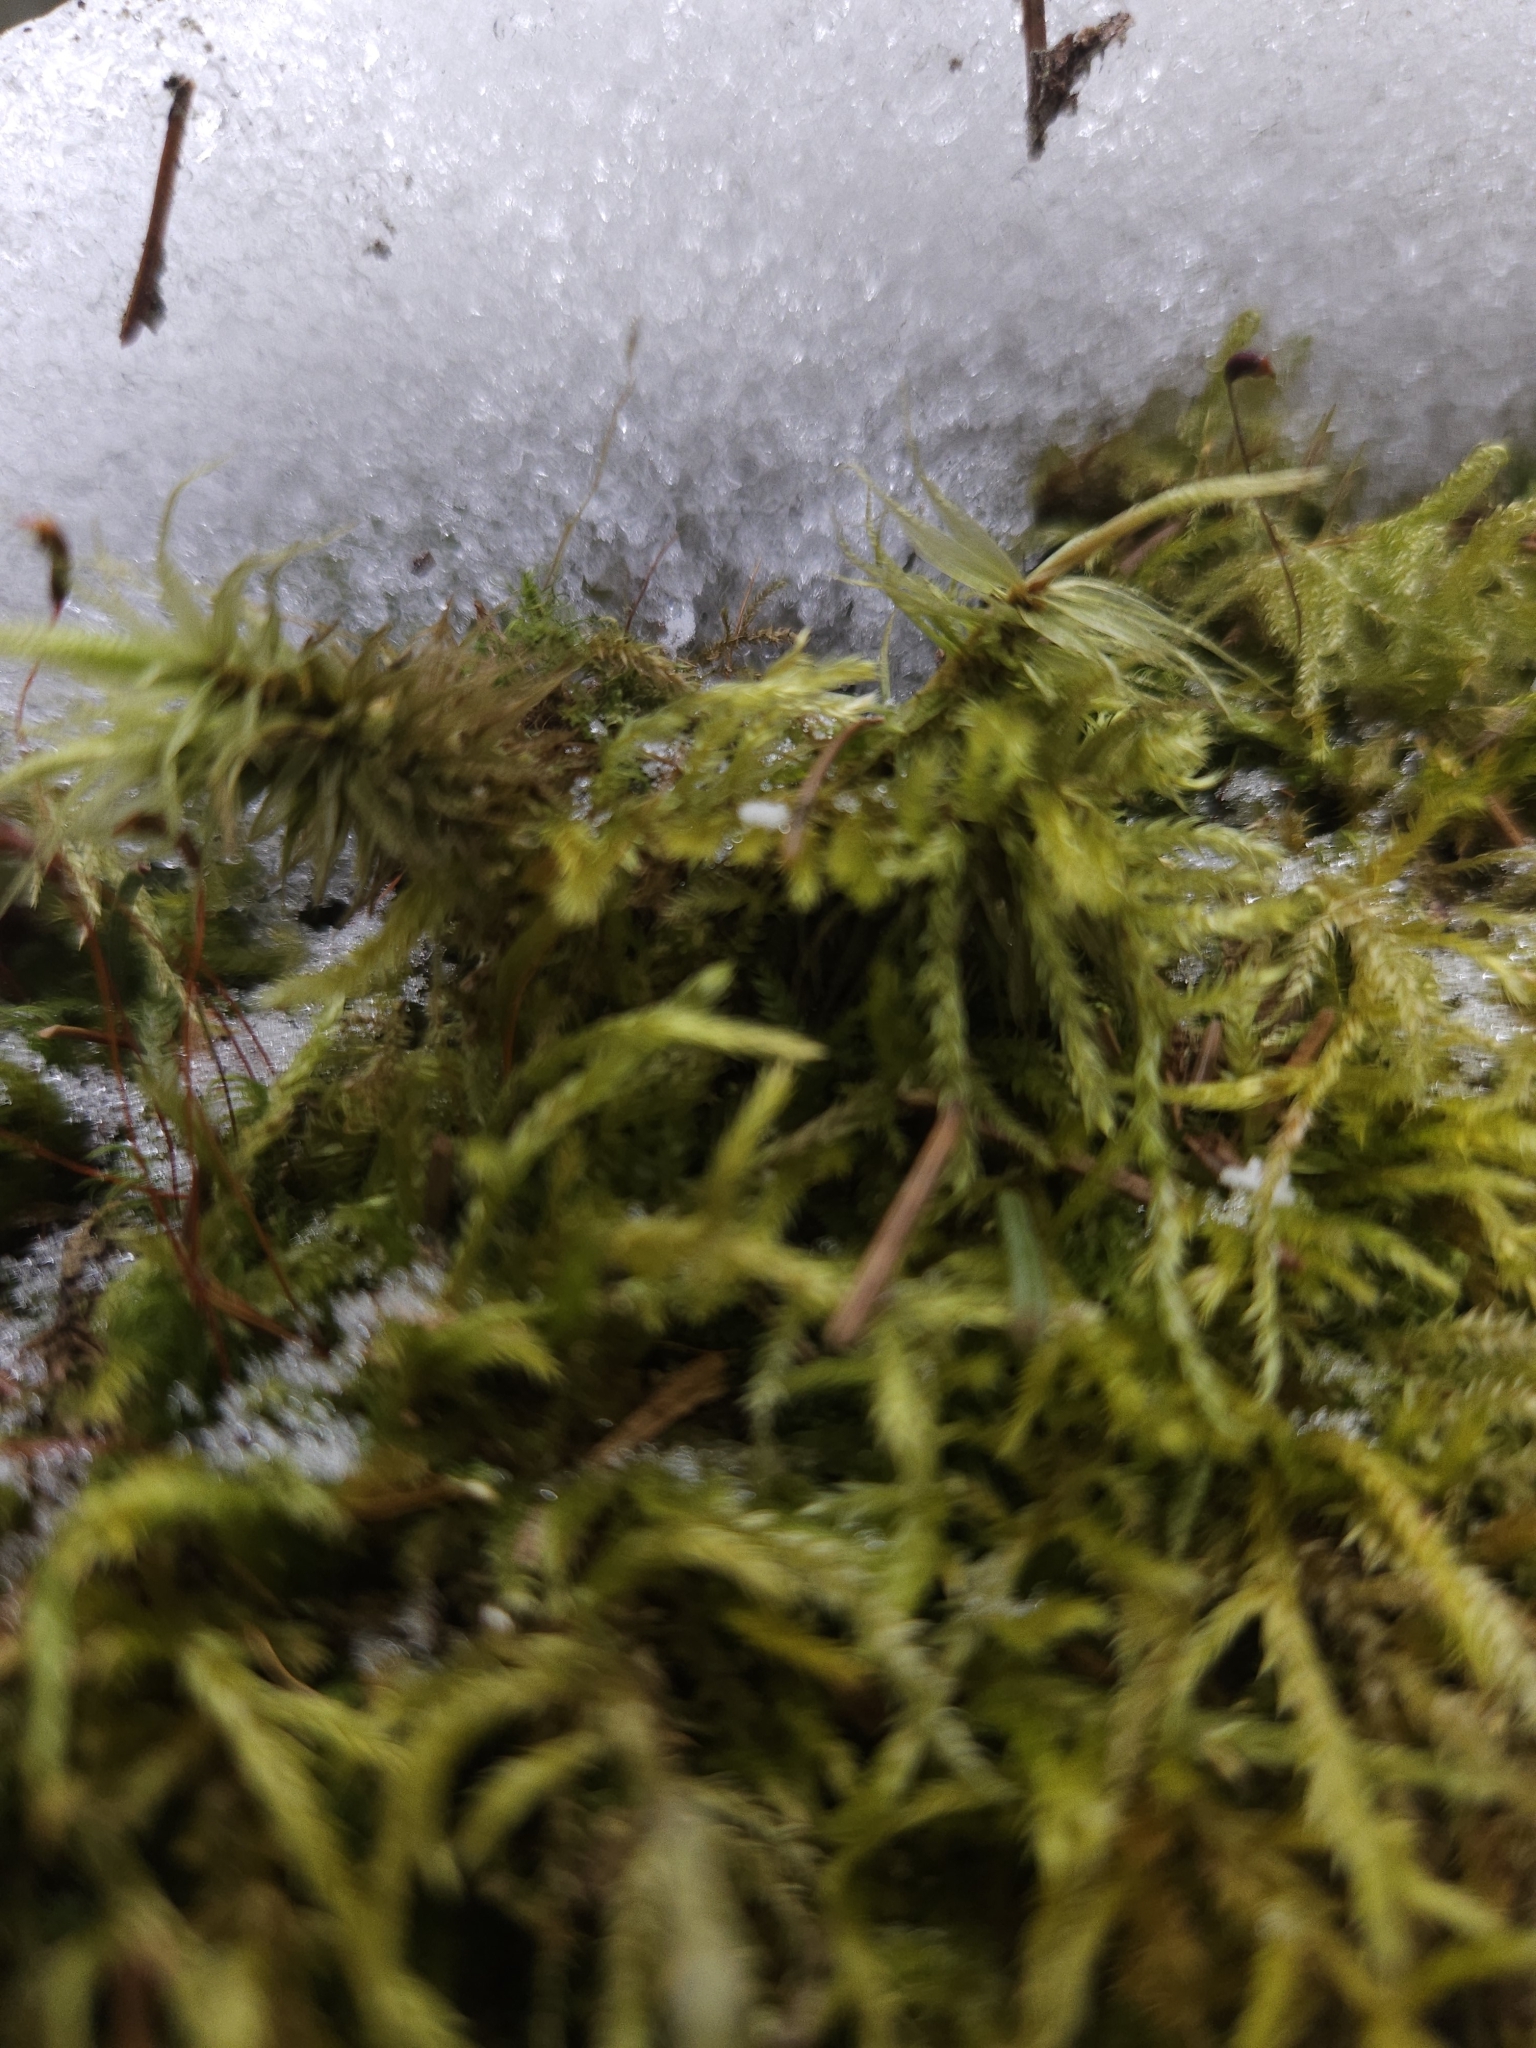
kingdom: Plantae
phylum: Bryophyta
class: Bryopsida
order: Dicranales
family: Dicranaceae
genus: Dicranum
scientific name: Dicranum polysetum
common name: Rugose fork-moss
